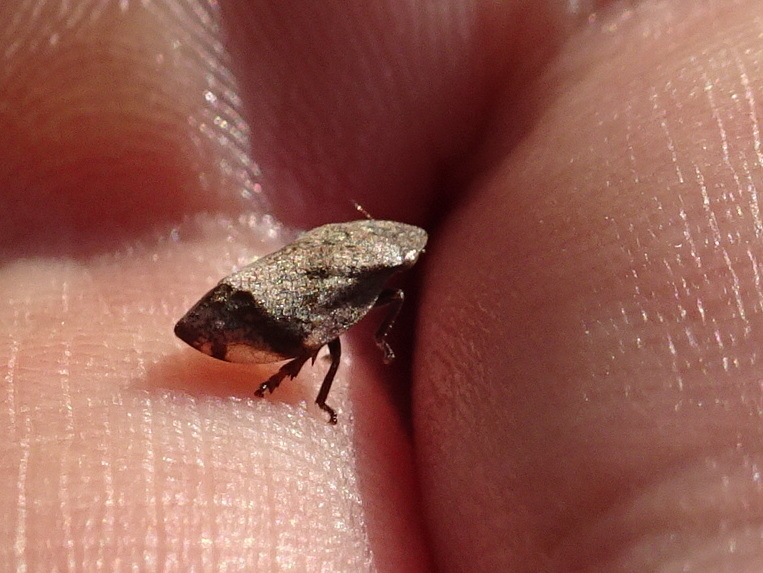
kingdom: Animalia
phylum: Arthropoda
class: Insecta
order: Hemiptera
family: Aphrophoridae
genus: Lepyronia
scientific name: Lepyronia quadrangularis
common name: Diamond-backed spittlebug
